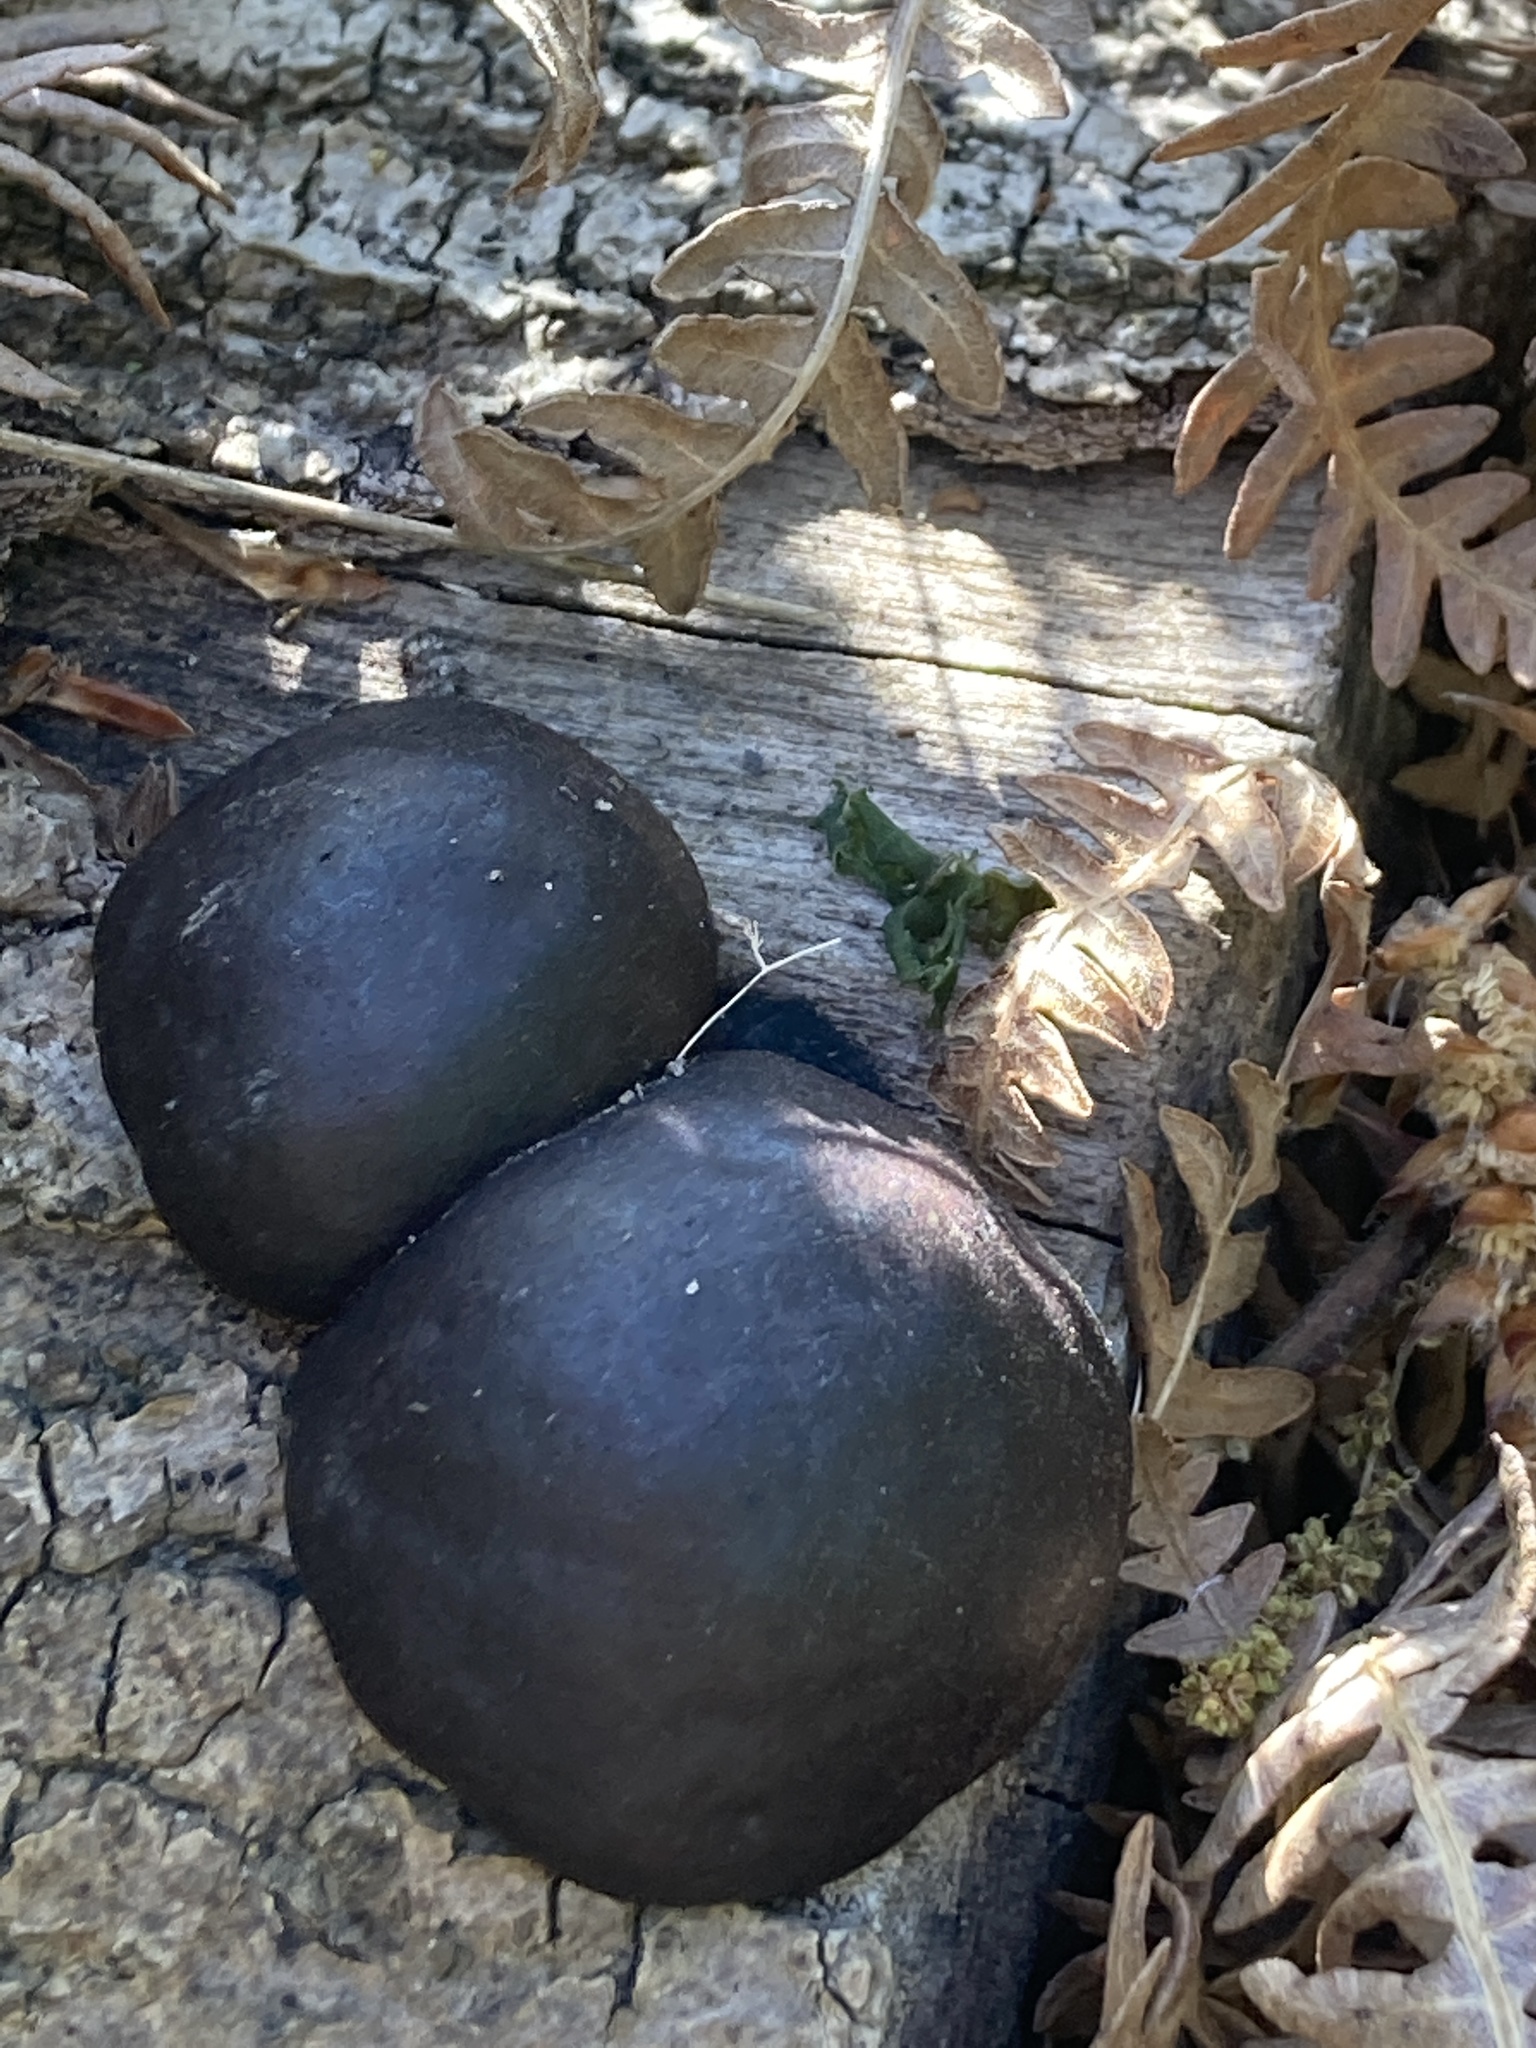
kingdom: Fungi
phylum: Ascomycota
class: Sordariomycetes
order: Xylariales
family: Hypoxylaceae
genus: Daldinia
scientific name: Daldinia concentrica
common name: Cramp balls
